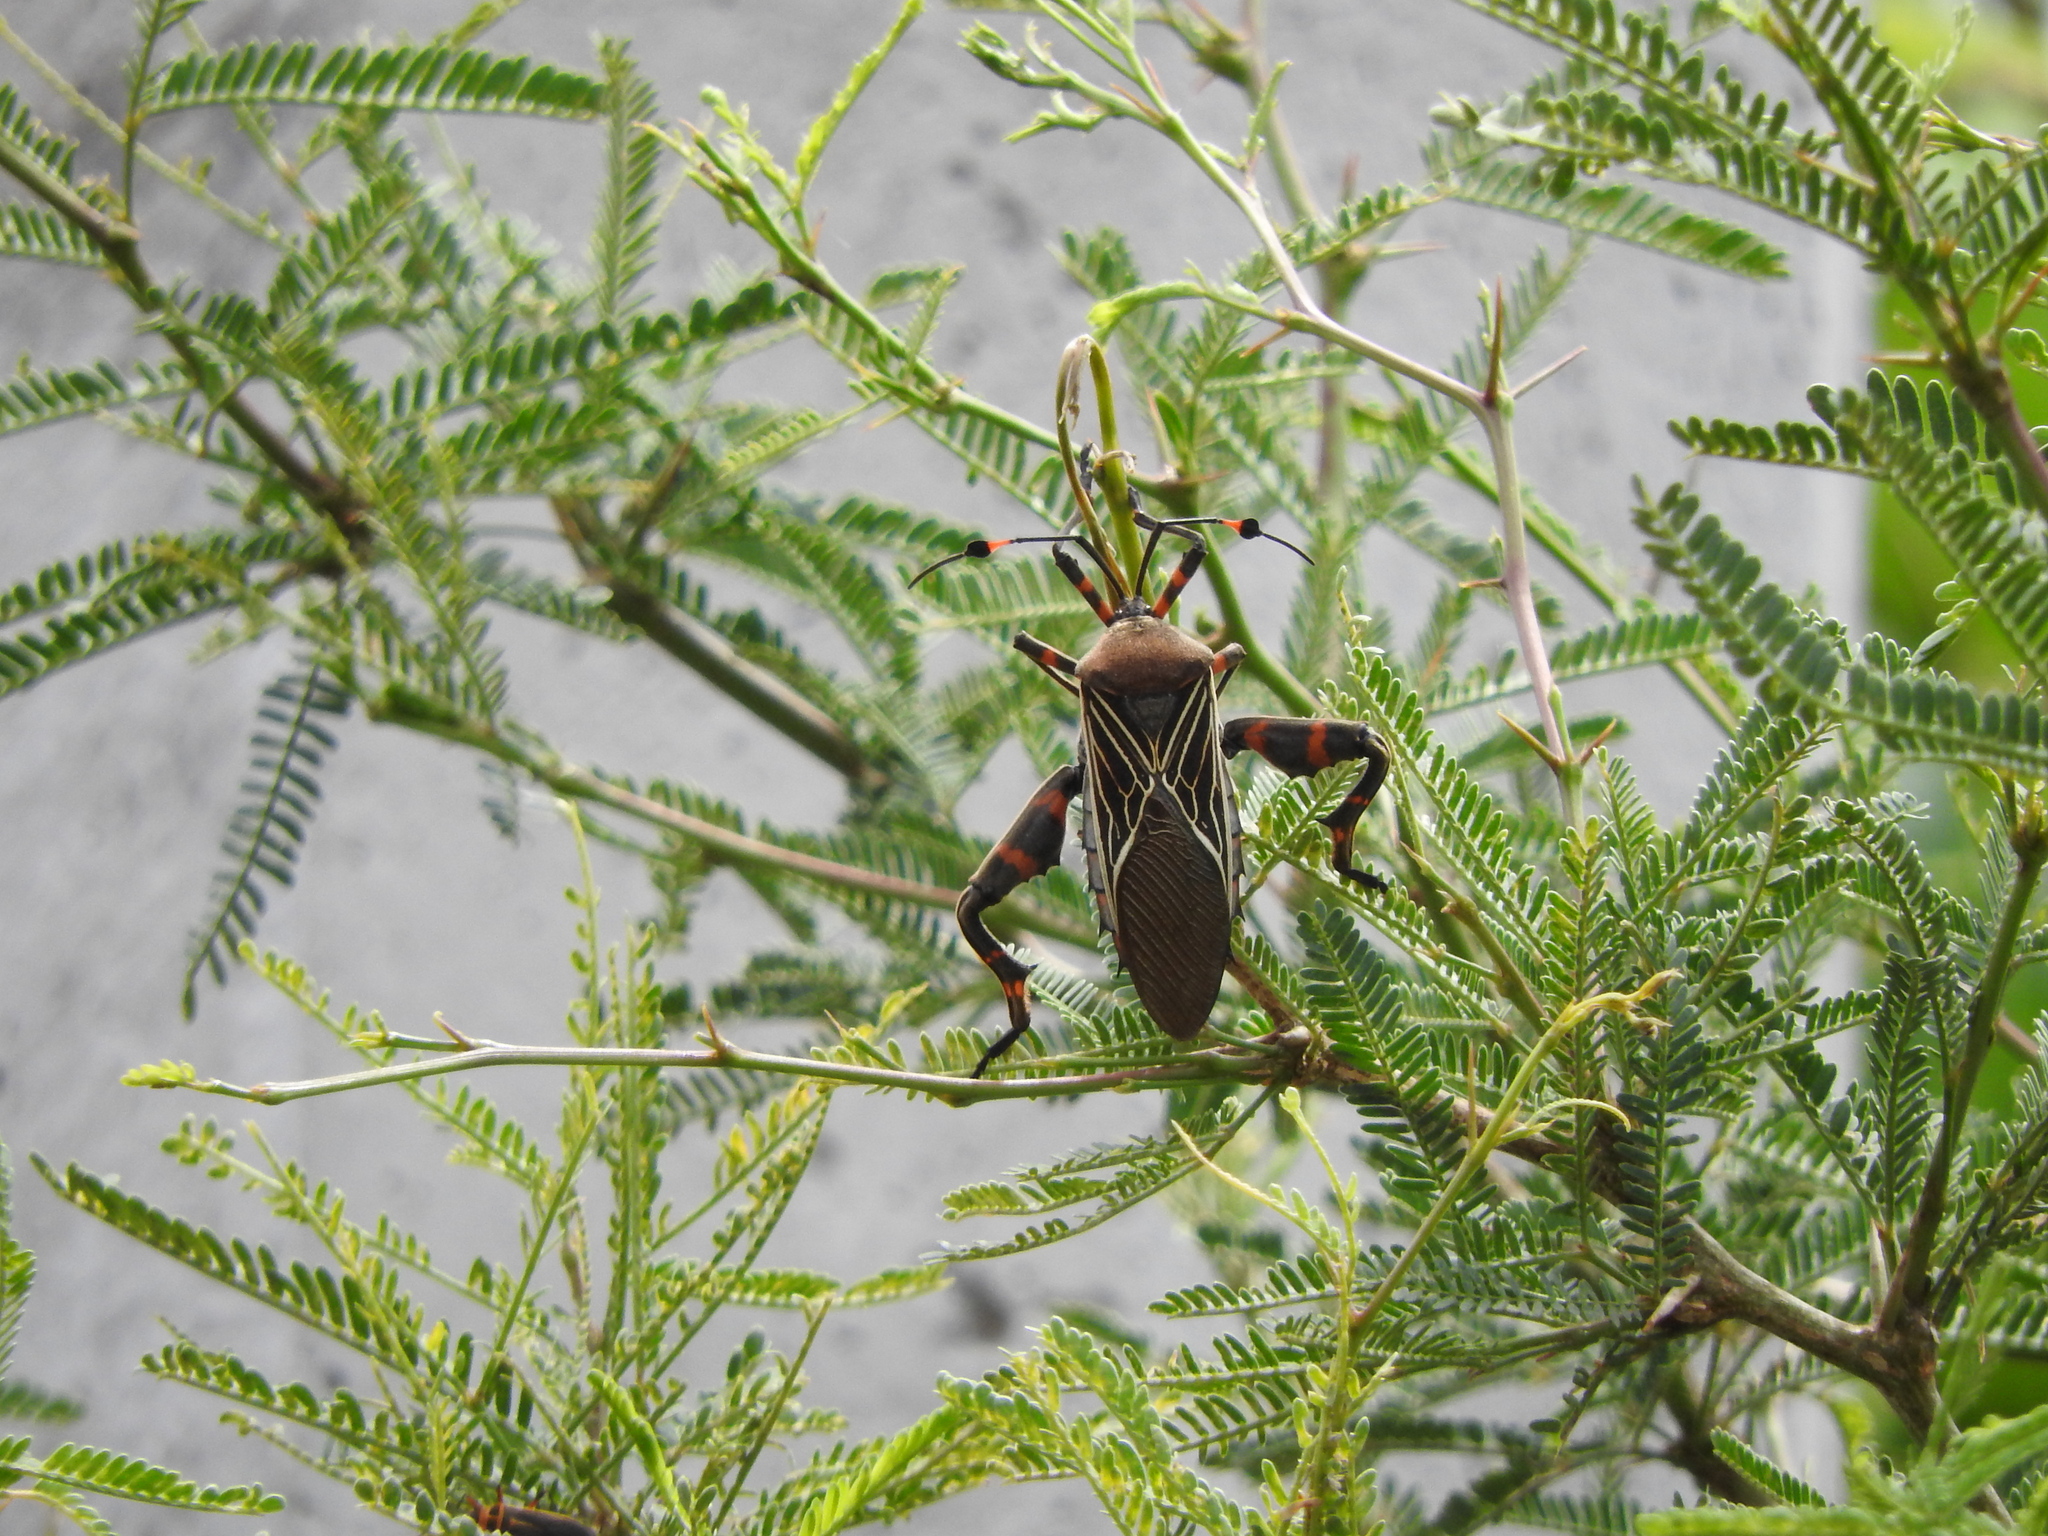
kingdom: Animalia
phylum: Arthropoda
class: Insecta
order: Hemiptera
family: Coreidae
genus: Thasus
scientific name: Thasus
